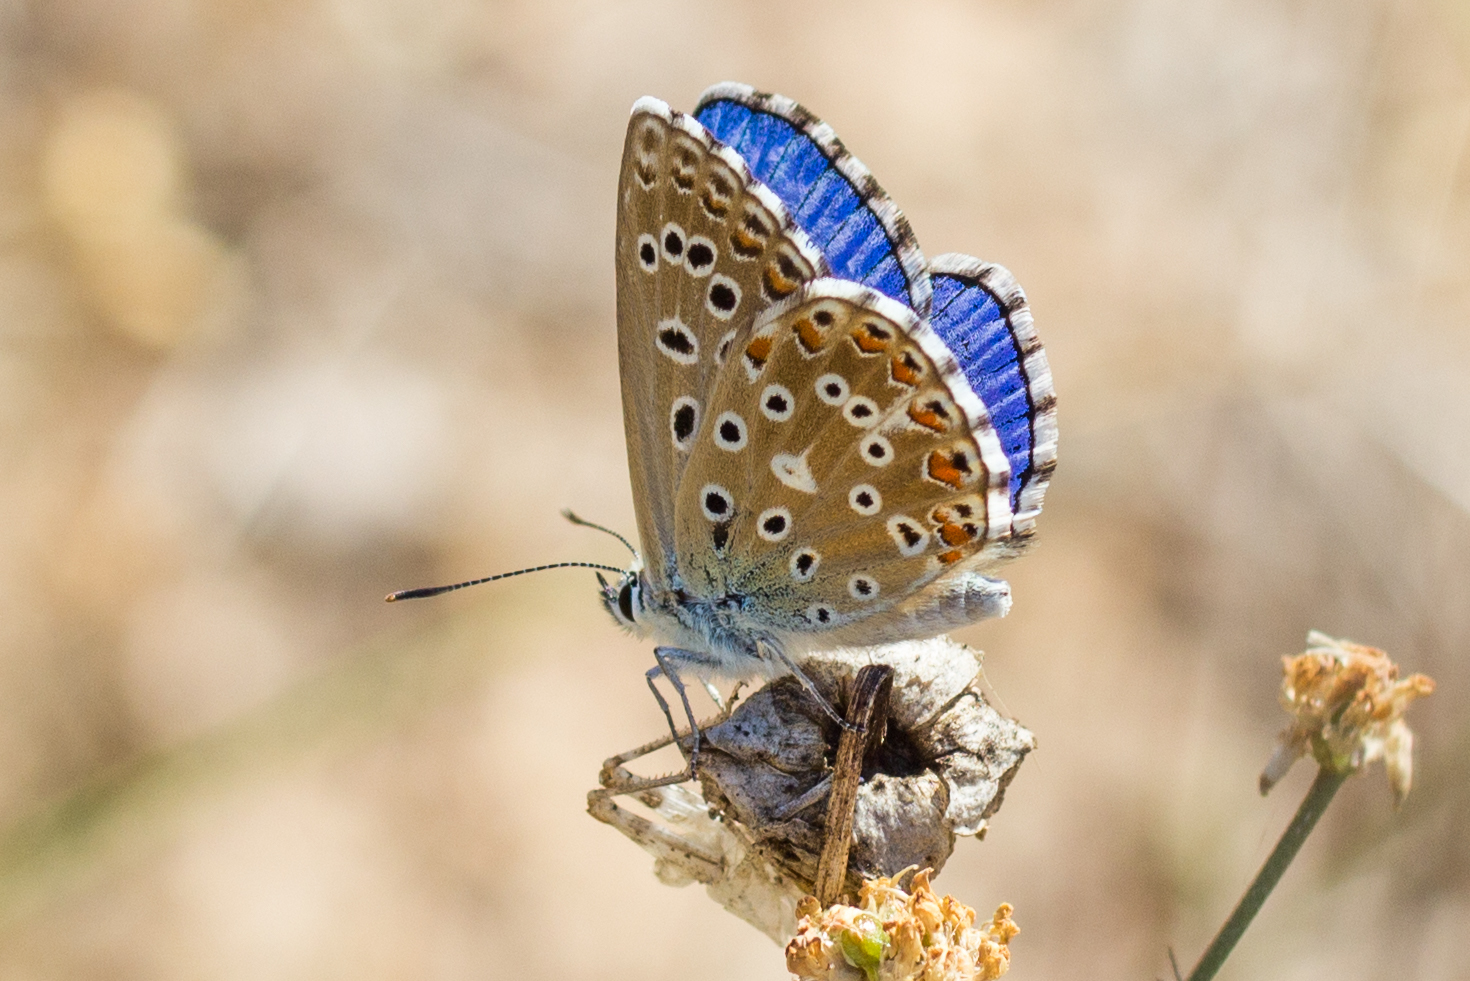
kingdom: Animalia
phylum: Arthropoda
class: Insecta
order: Lepidoptera
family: Lycaenidae
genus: Lysandra
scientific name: Lysandra bellargus
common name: Adonis blue
